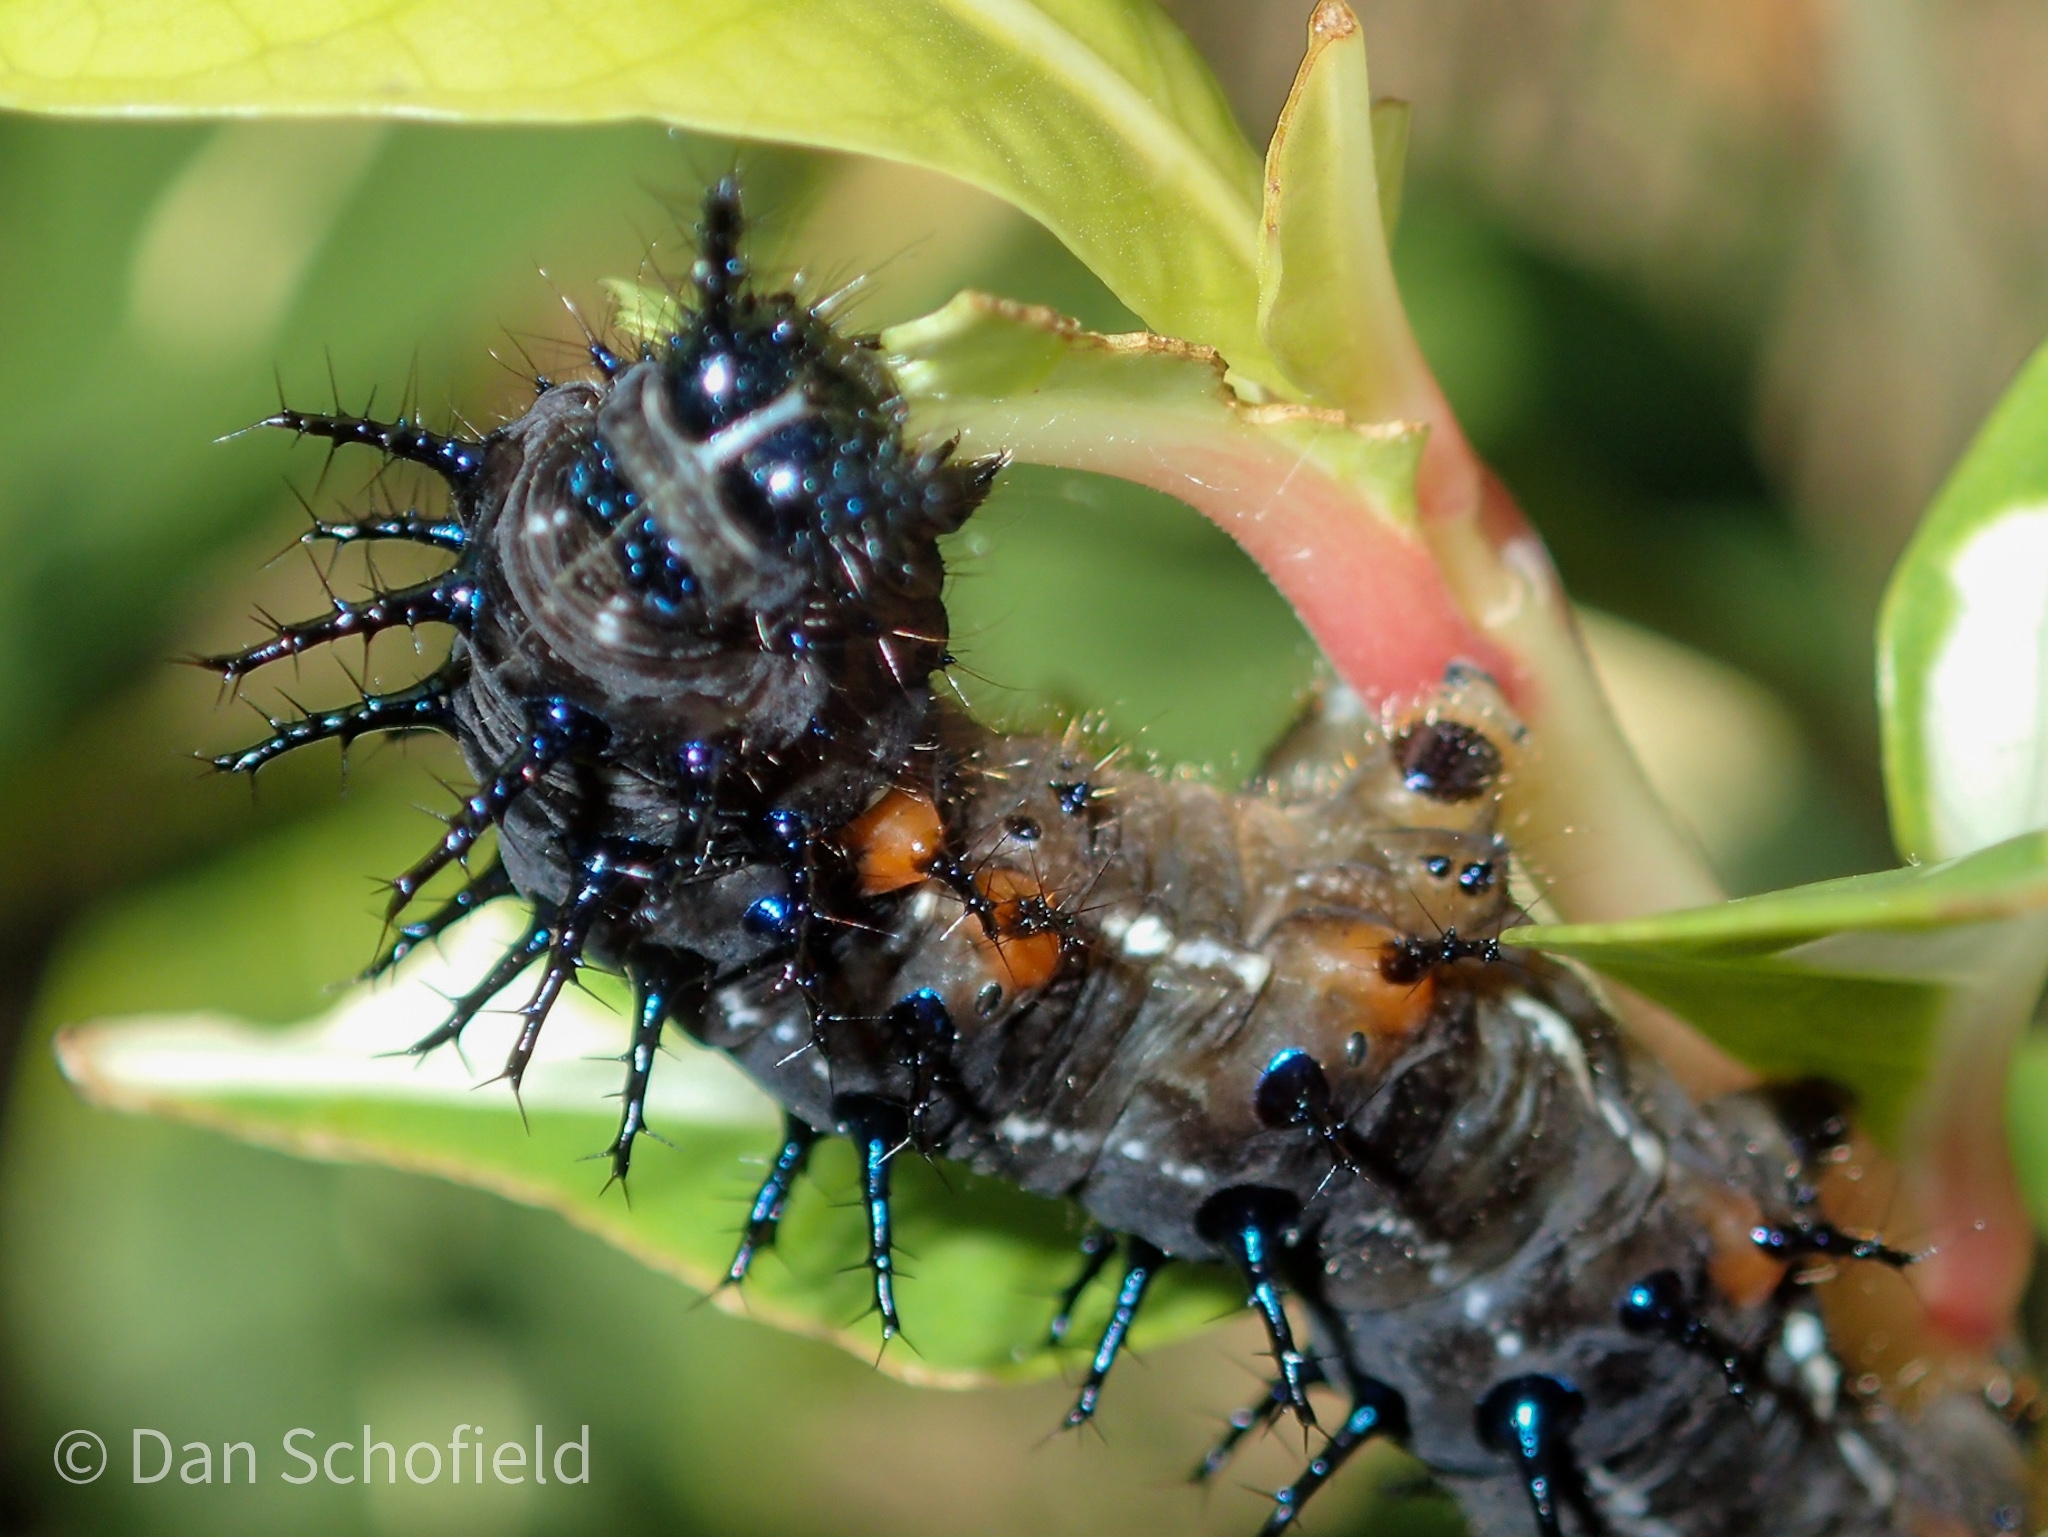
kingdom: Animalia
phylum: Arthropoda
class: Insecta
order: Lepidoptera
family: Nymphalidae
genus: Doleschallia
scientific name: Doleschallia bisaltide
